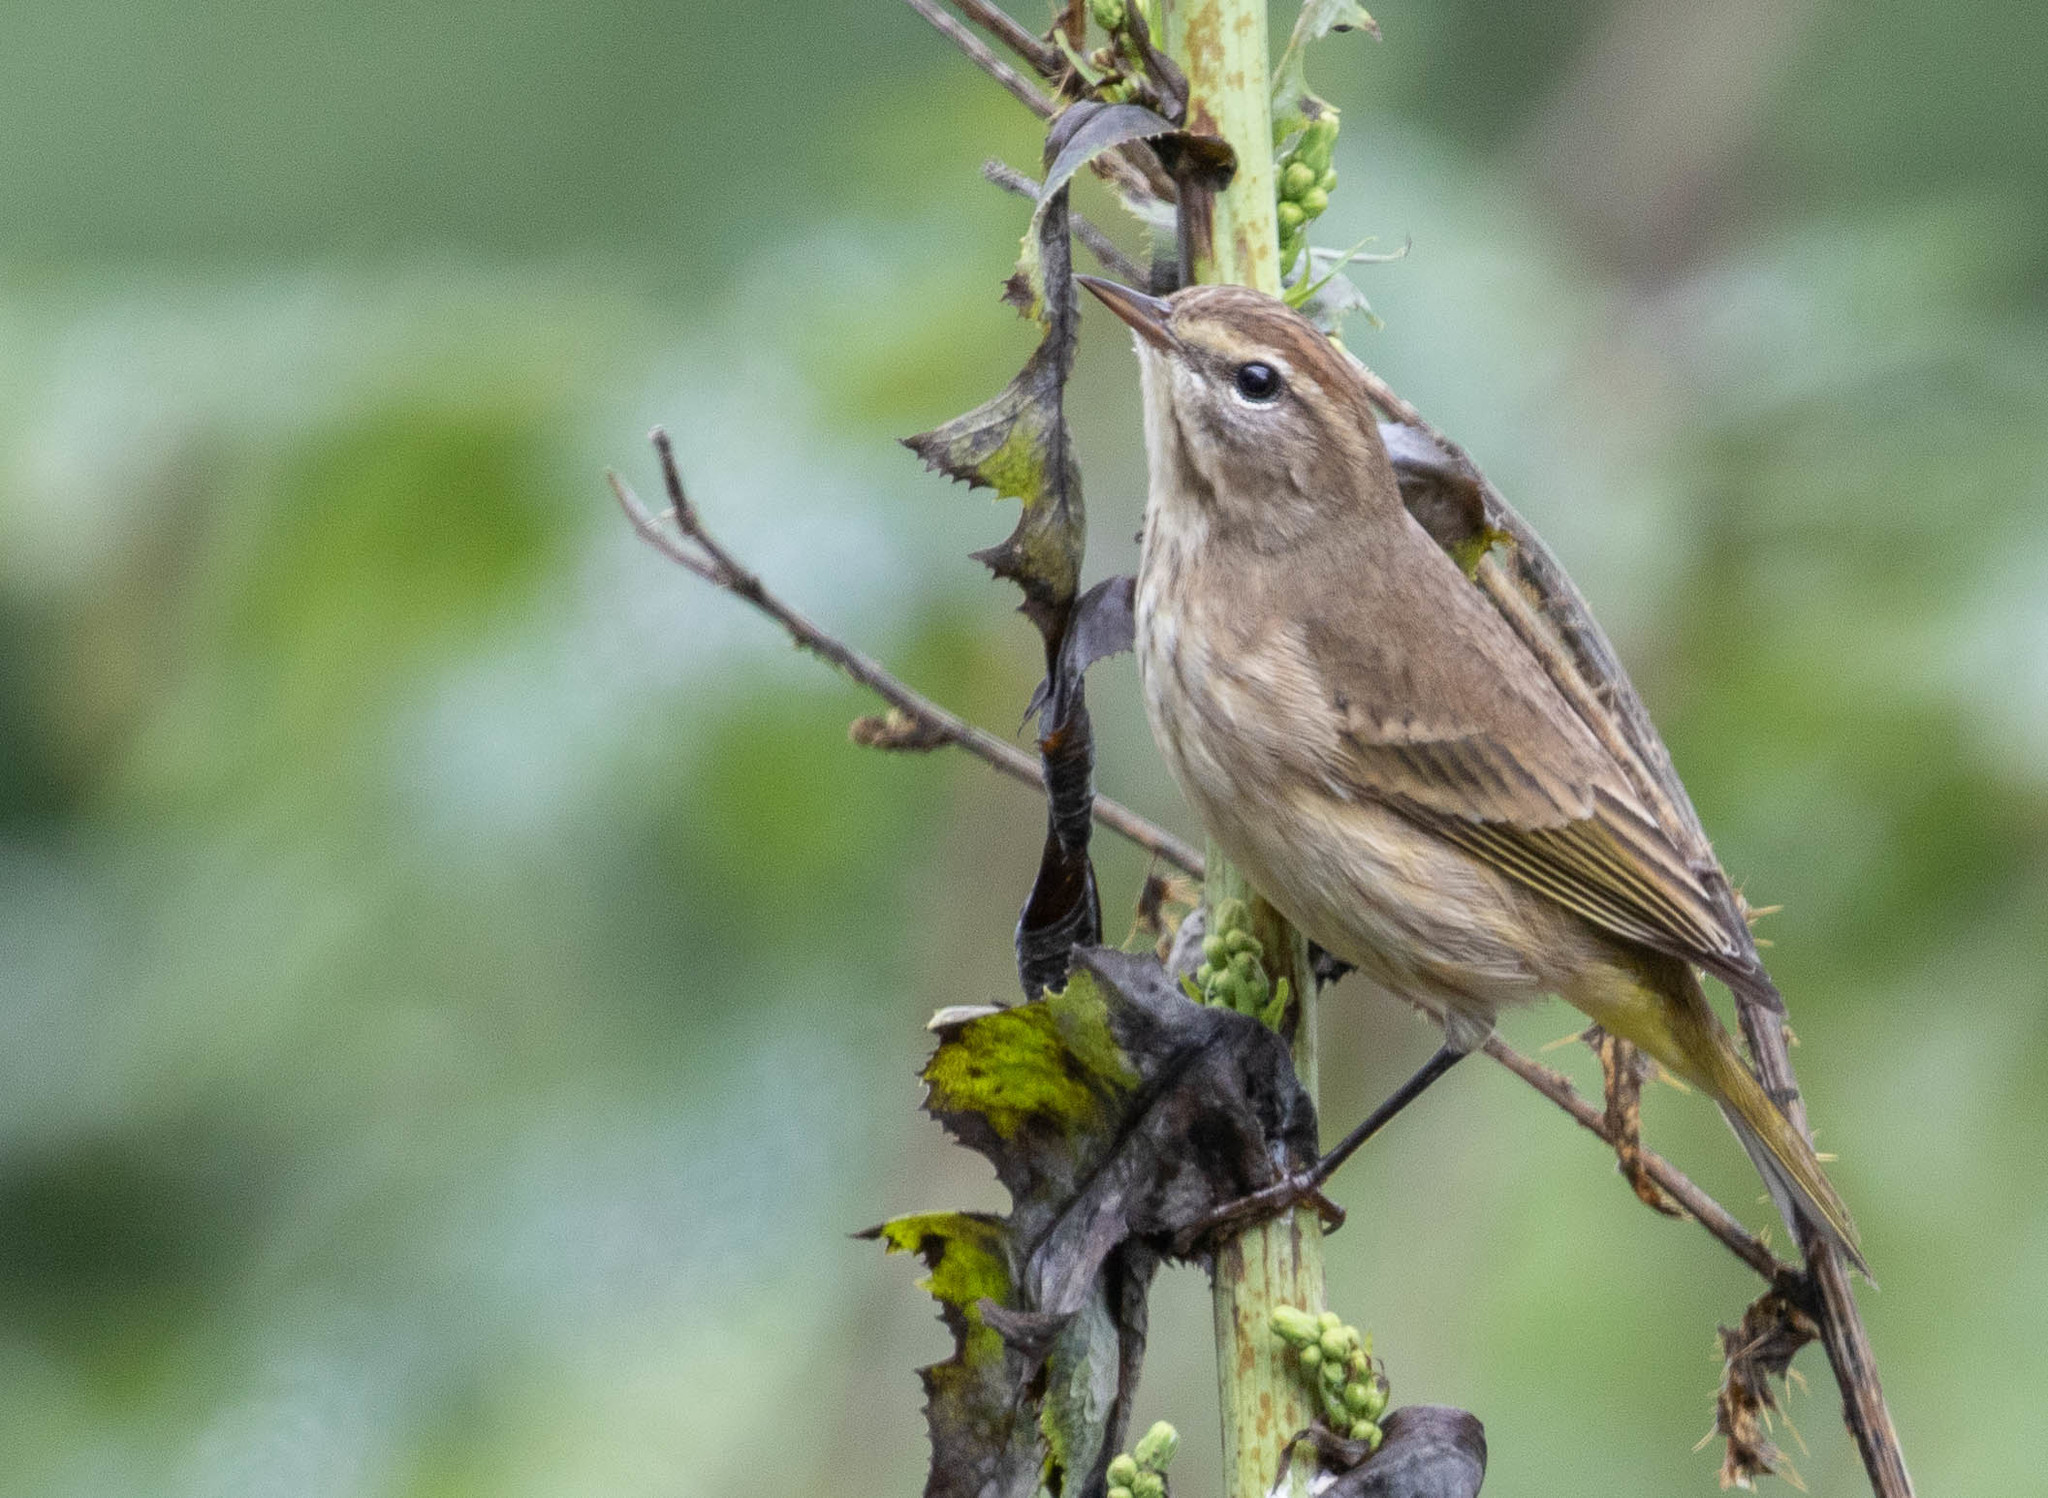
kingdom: Animalia
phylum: Chordata
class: Aves
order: Passeriformes
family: Parulidae
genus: Setophaga
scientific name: Setophaga palmarum
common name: Palm warbler
